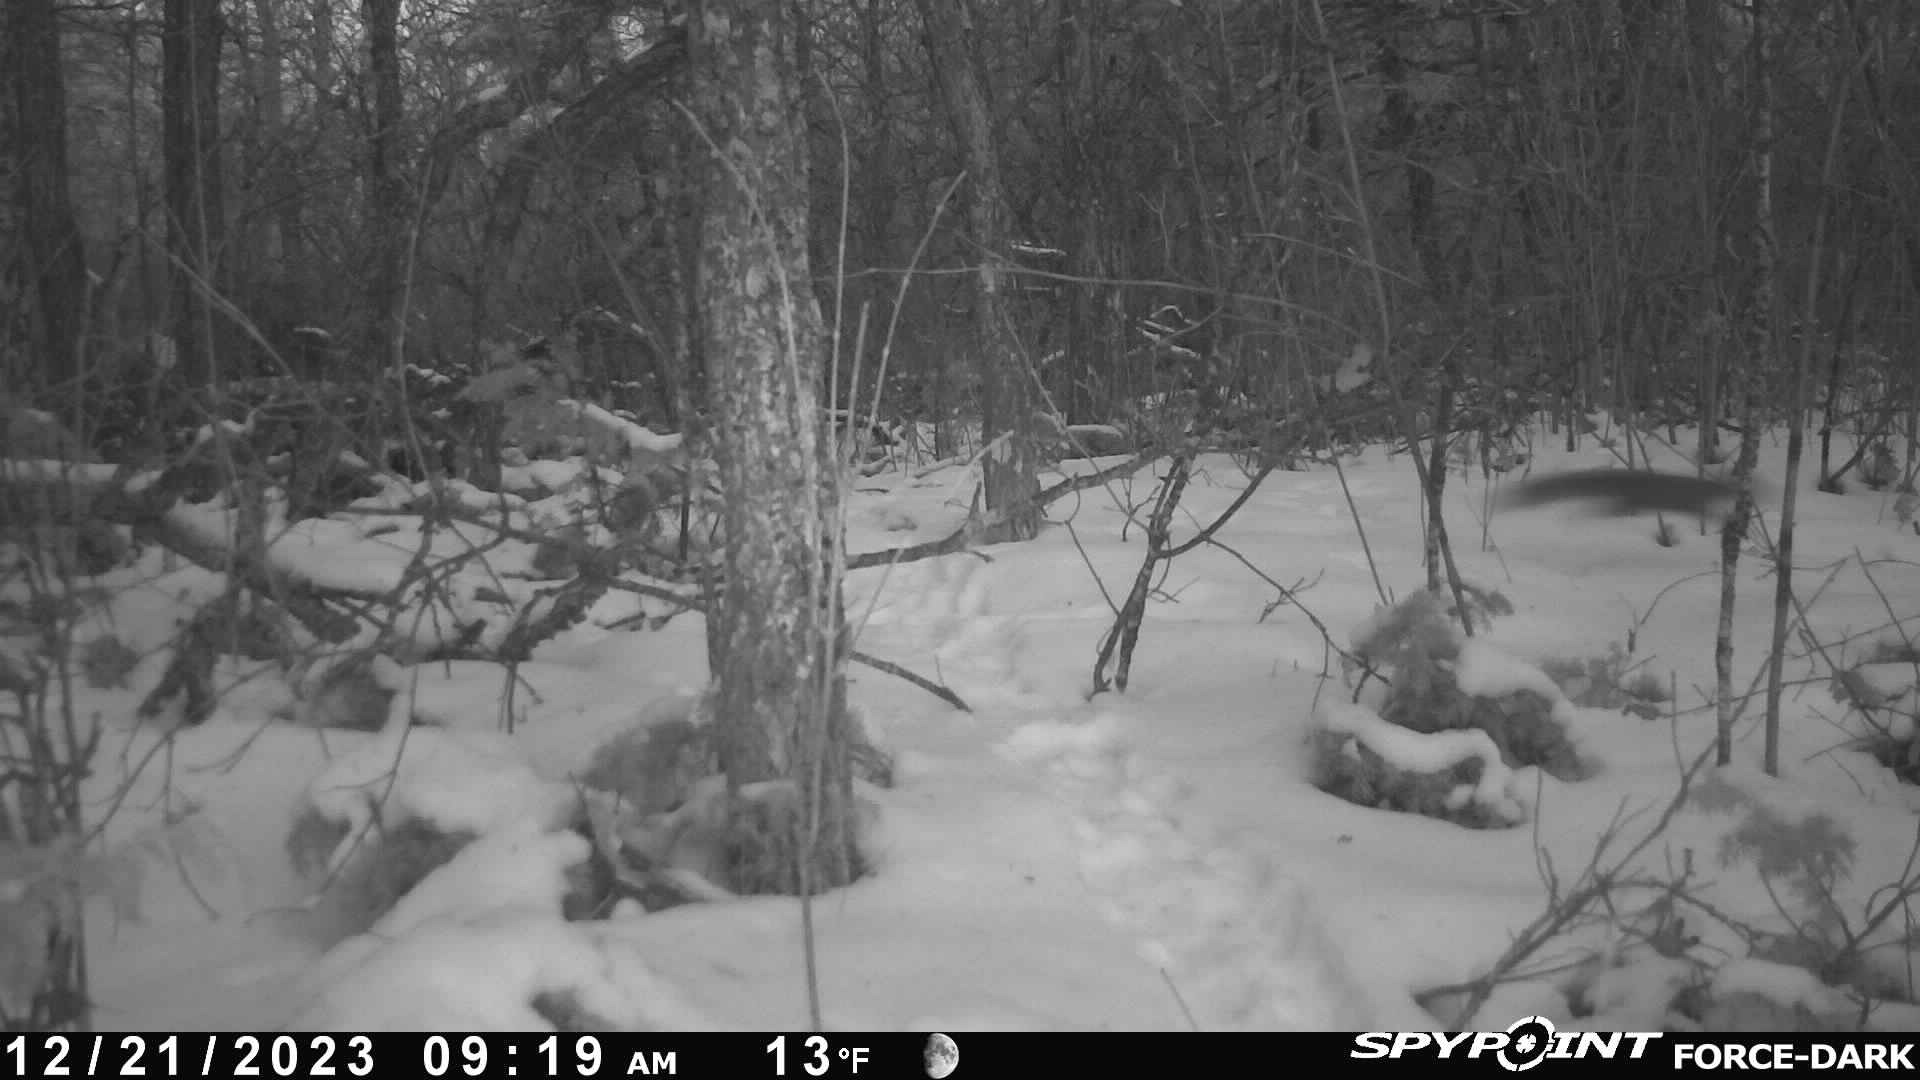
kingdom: Animalia
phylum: Chordata
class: Mammalia
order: Rodentia
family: Sciuridae
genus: Tamiasciurus
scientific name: Tamiasciurus hudsonicus
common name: Red squirrel
